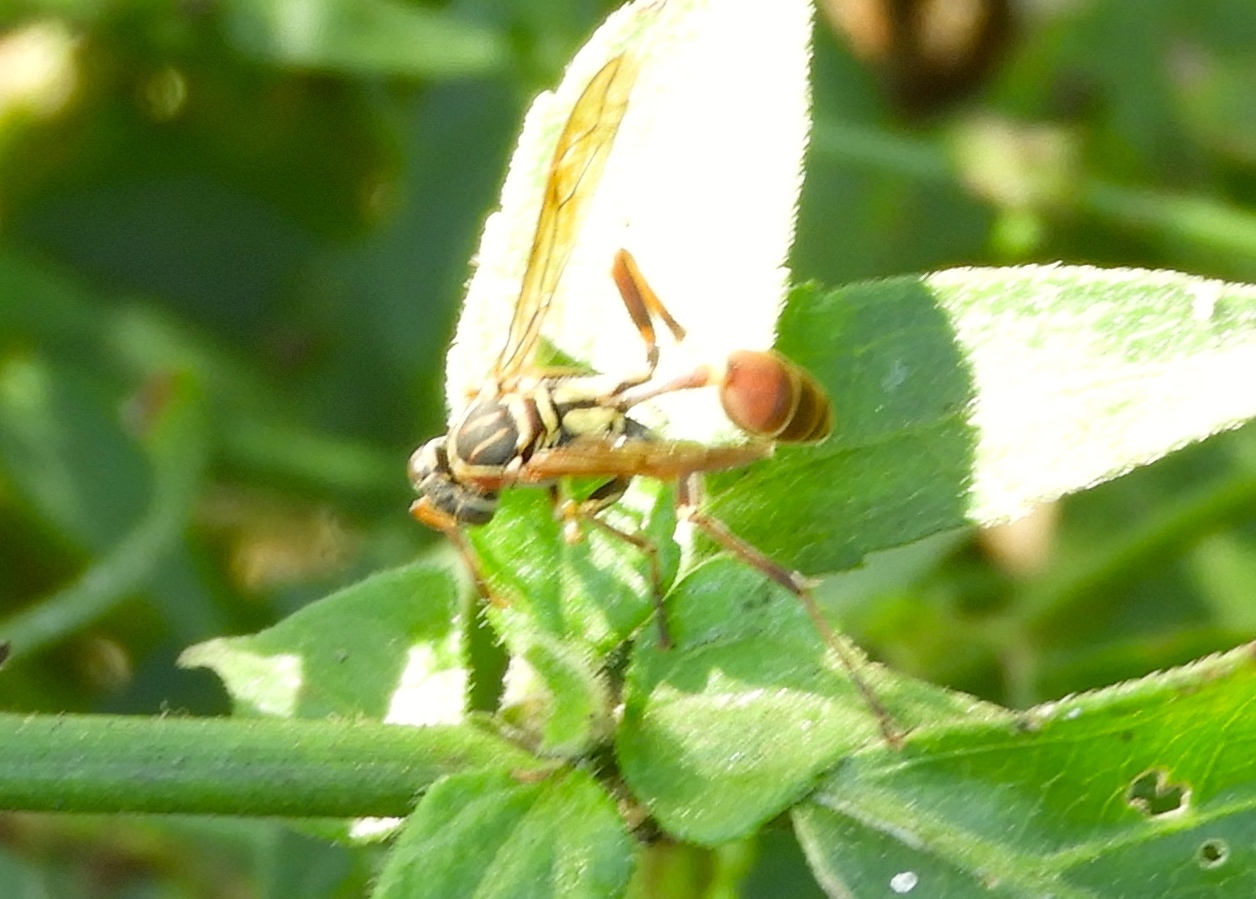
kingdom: Animalia
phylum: Arthropoda
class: Insecta
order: Hymenoptera
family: Vespidae
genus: Mischocyttarus
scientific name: Mischocyttarus
